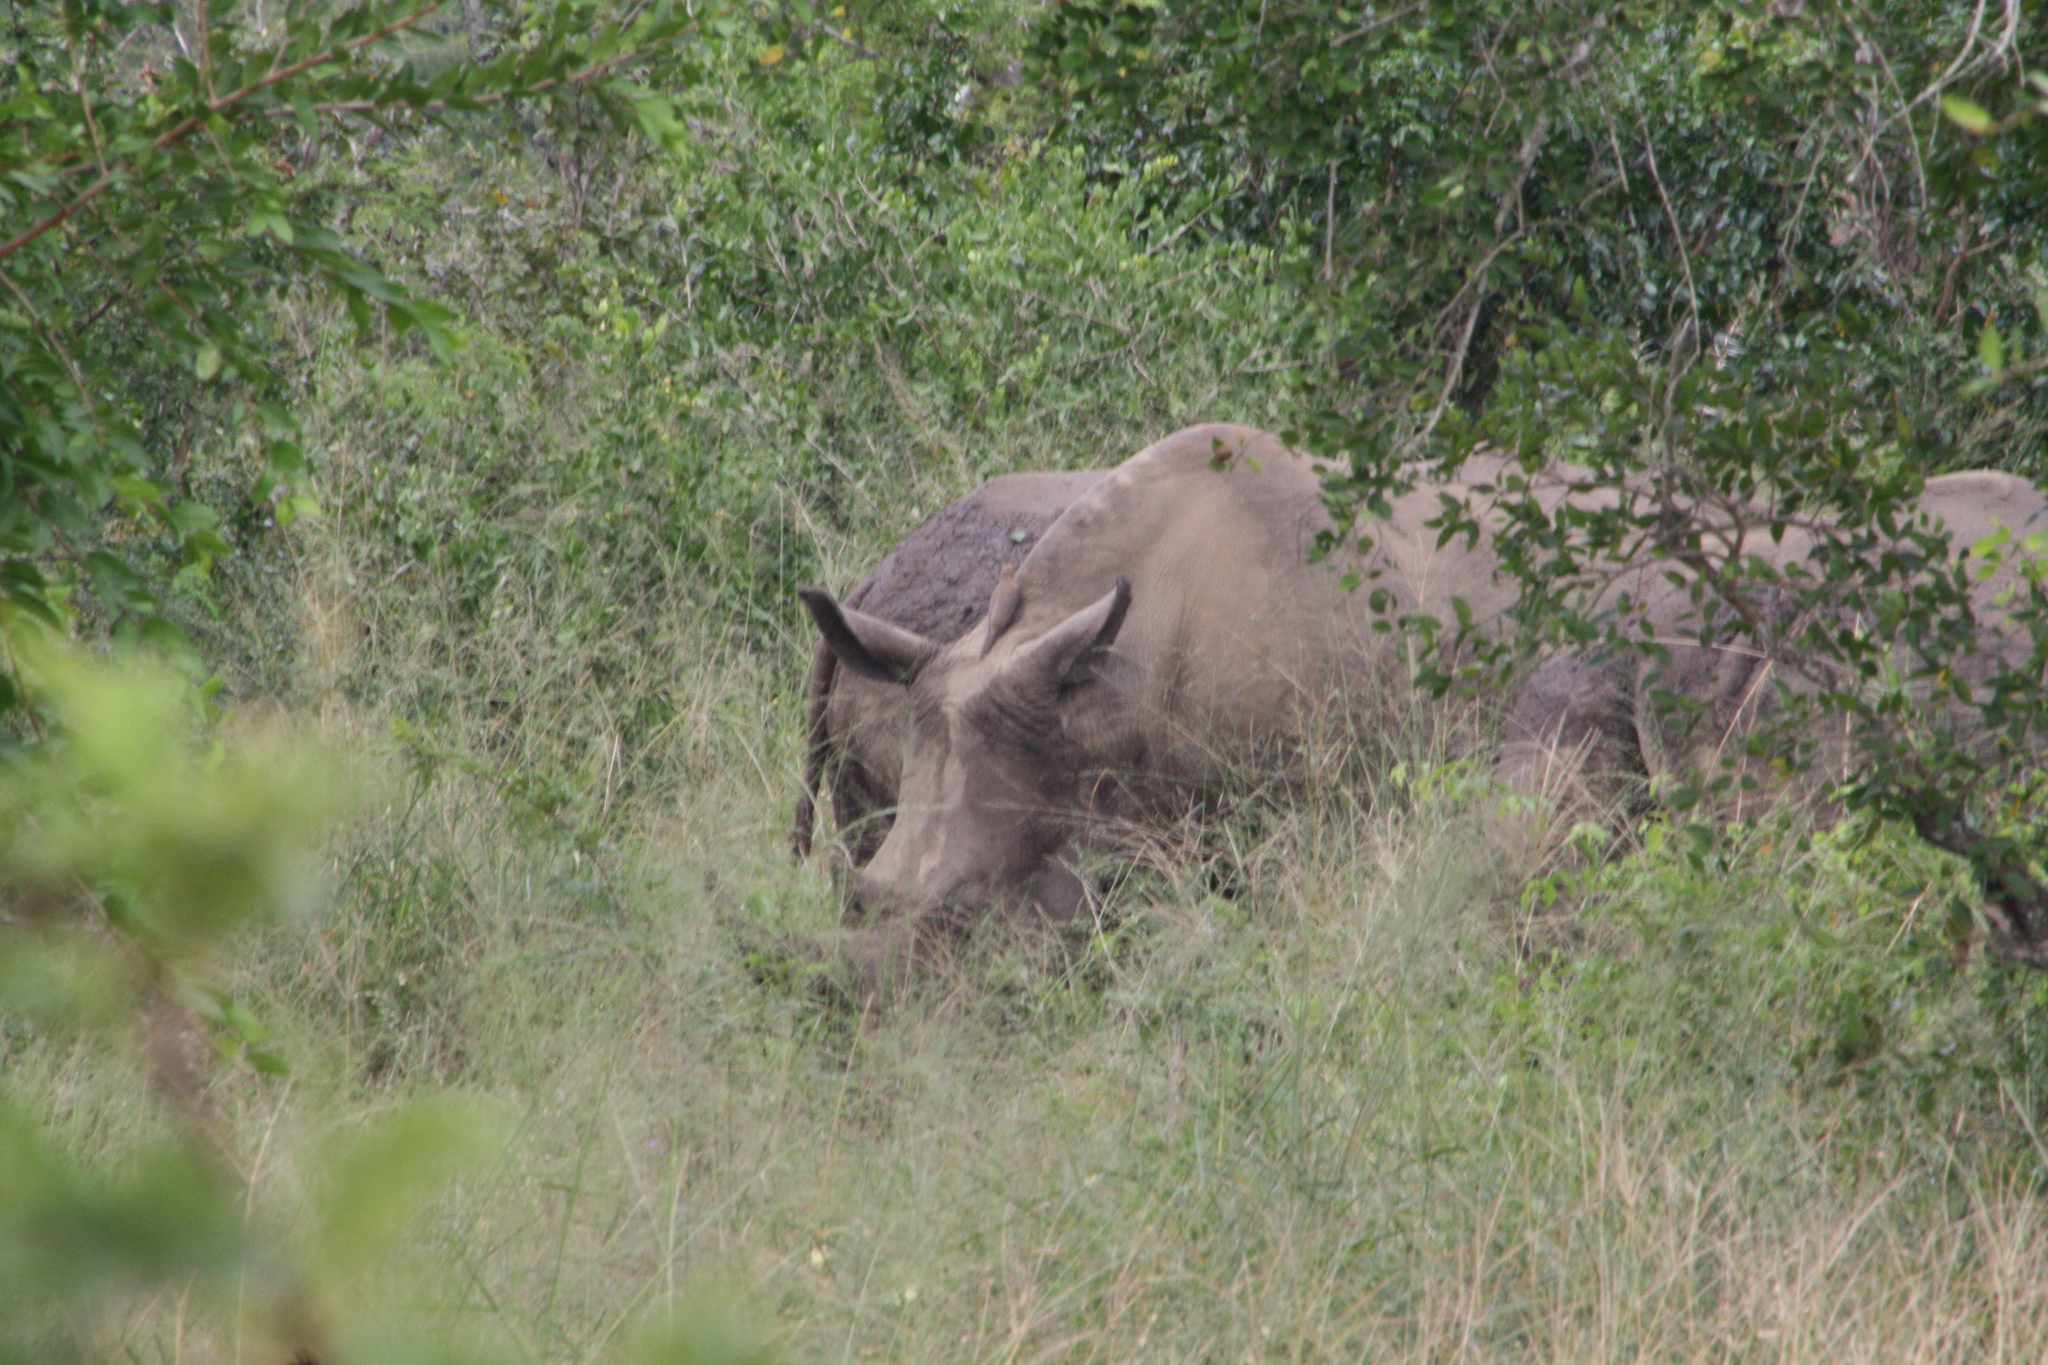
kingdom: Animalia
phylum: Chordata
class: Mammalia
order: Perissodactyla
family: Rhinocerotidae
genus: Diceros
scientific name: Diceros bicornis
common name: Black rhinoceros
